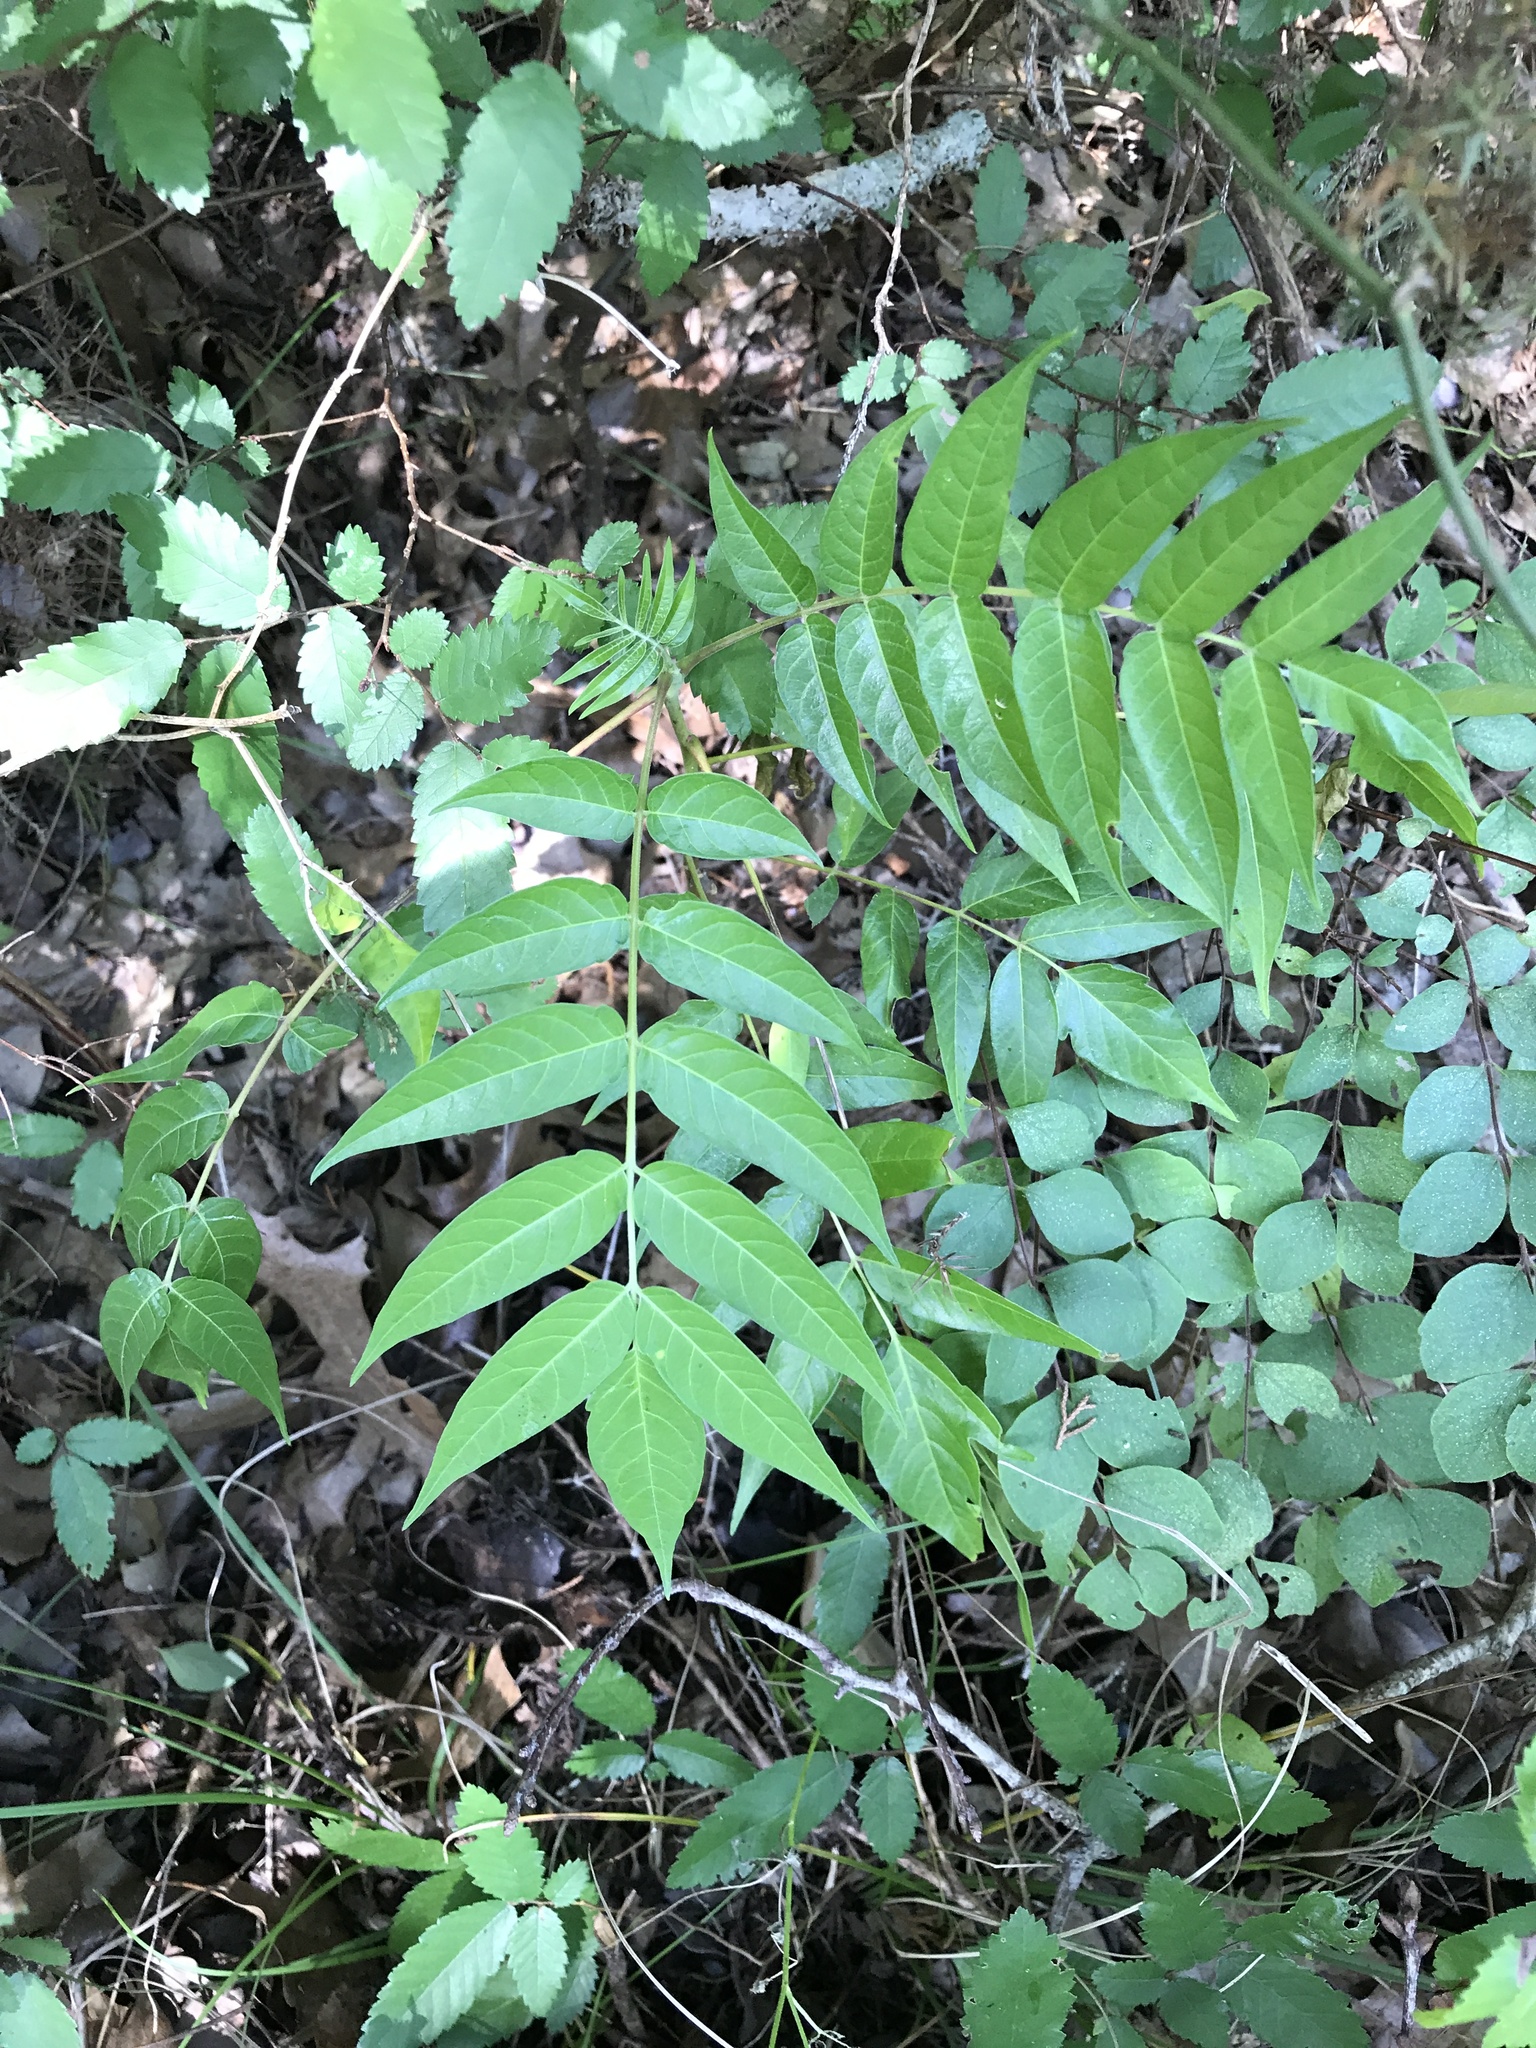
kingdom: Plantae
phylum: Tracheophyta
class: Magnoliopsida
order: Sapindales
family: Simaroubaceae
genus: Ailanthus
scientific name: Ailanthus altissima
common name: Tree-of-heaven
